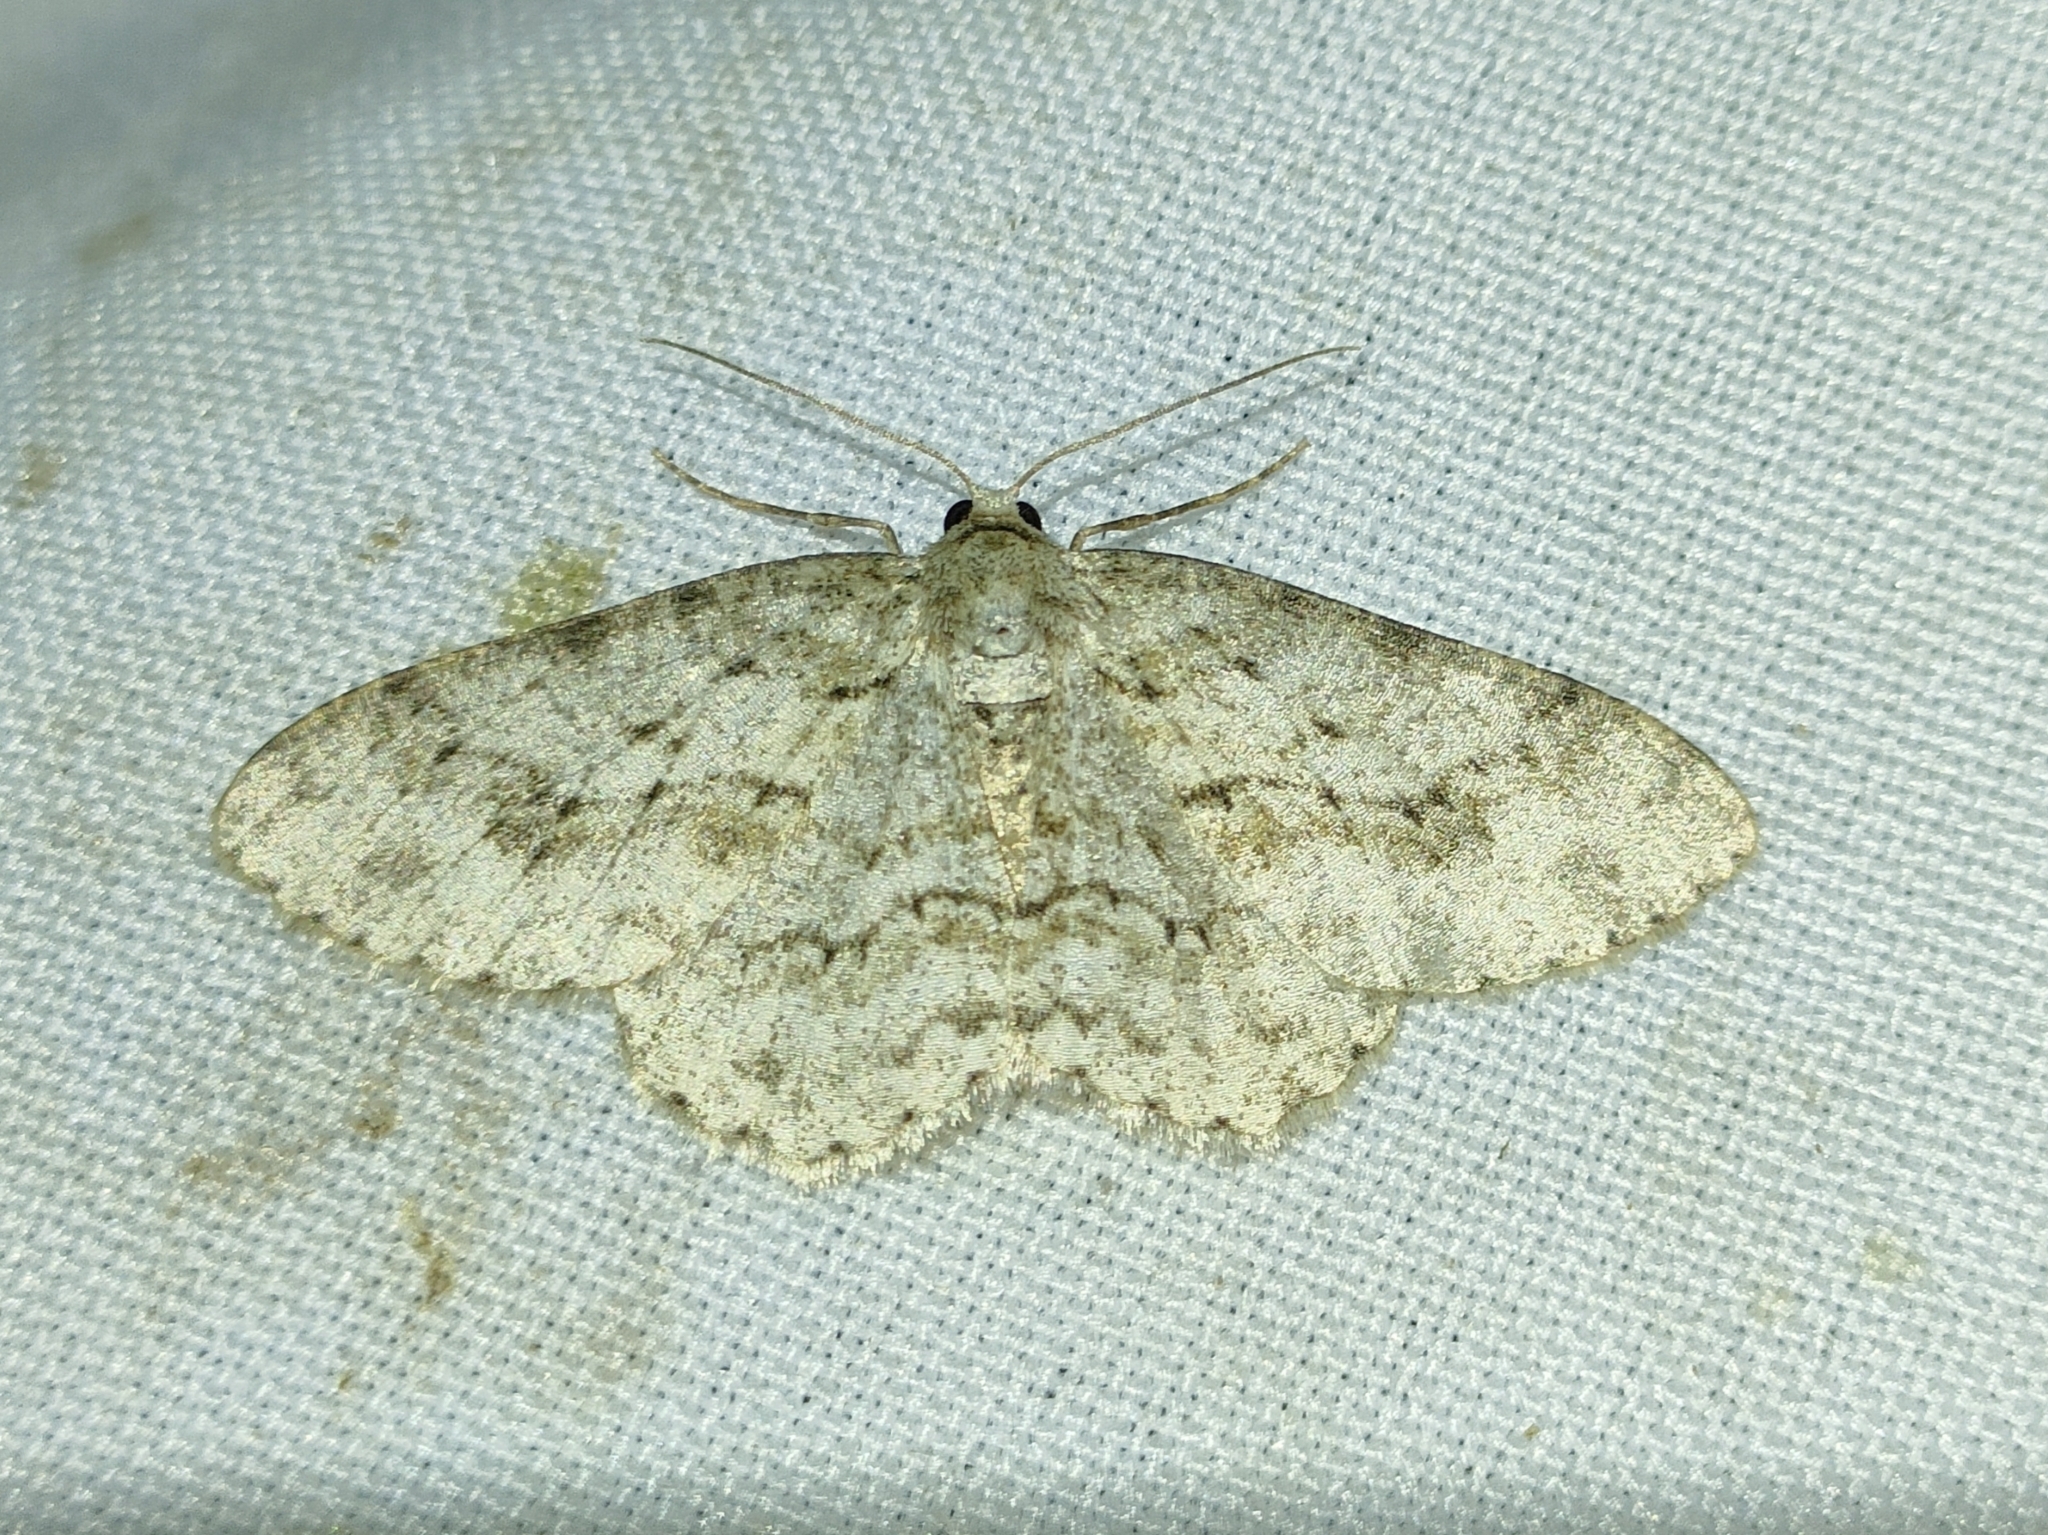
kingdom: Animalia
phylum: Arthropoda
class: Insecta
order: Lepidoptera
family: Geometridae
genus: Ectropis
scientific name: Ectropis crepuscularia
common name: Engrailed
